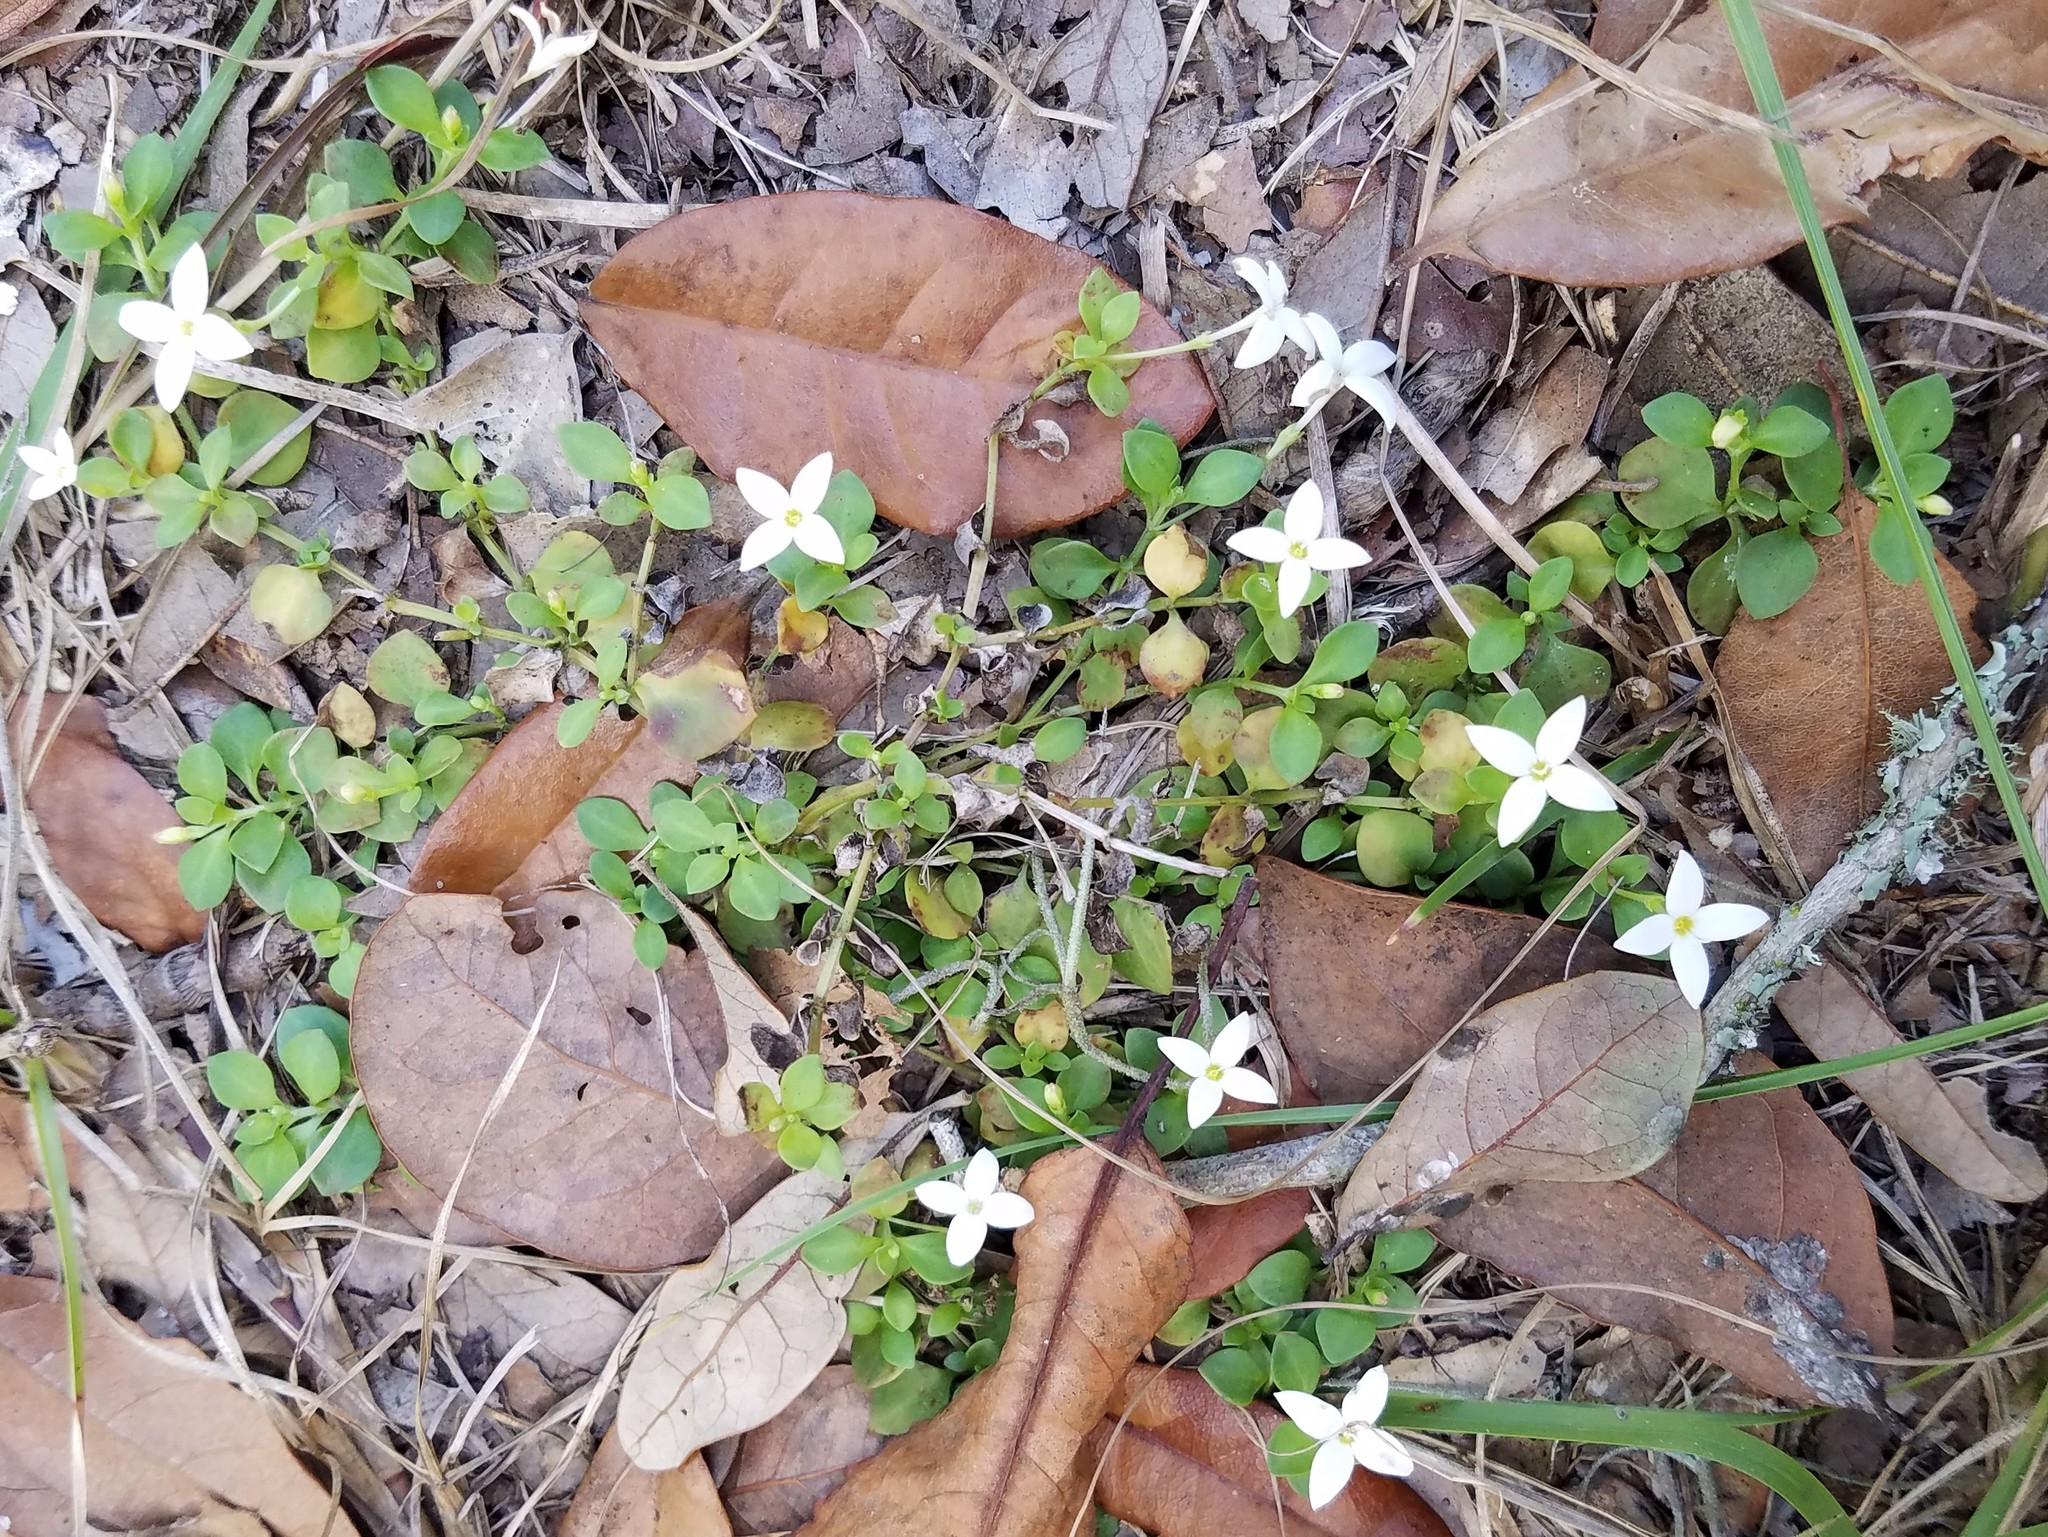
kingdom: Plantae
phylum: Tracheophyta
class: Magnoliopsida
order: Gentianales
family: Rubiaceae
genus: Houstonia
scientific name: Houstonia procumbens
